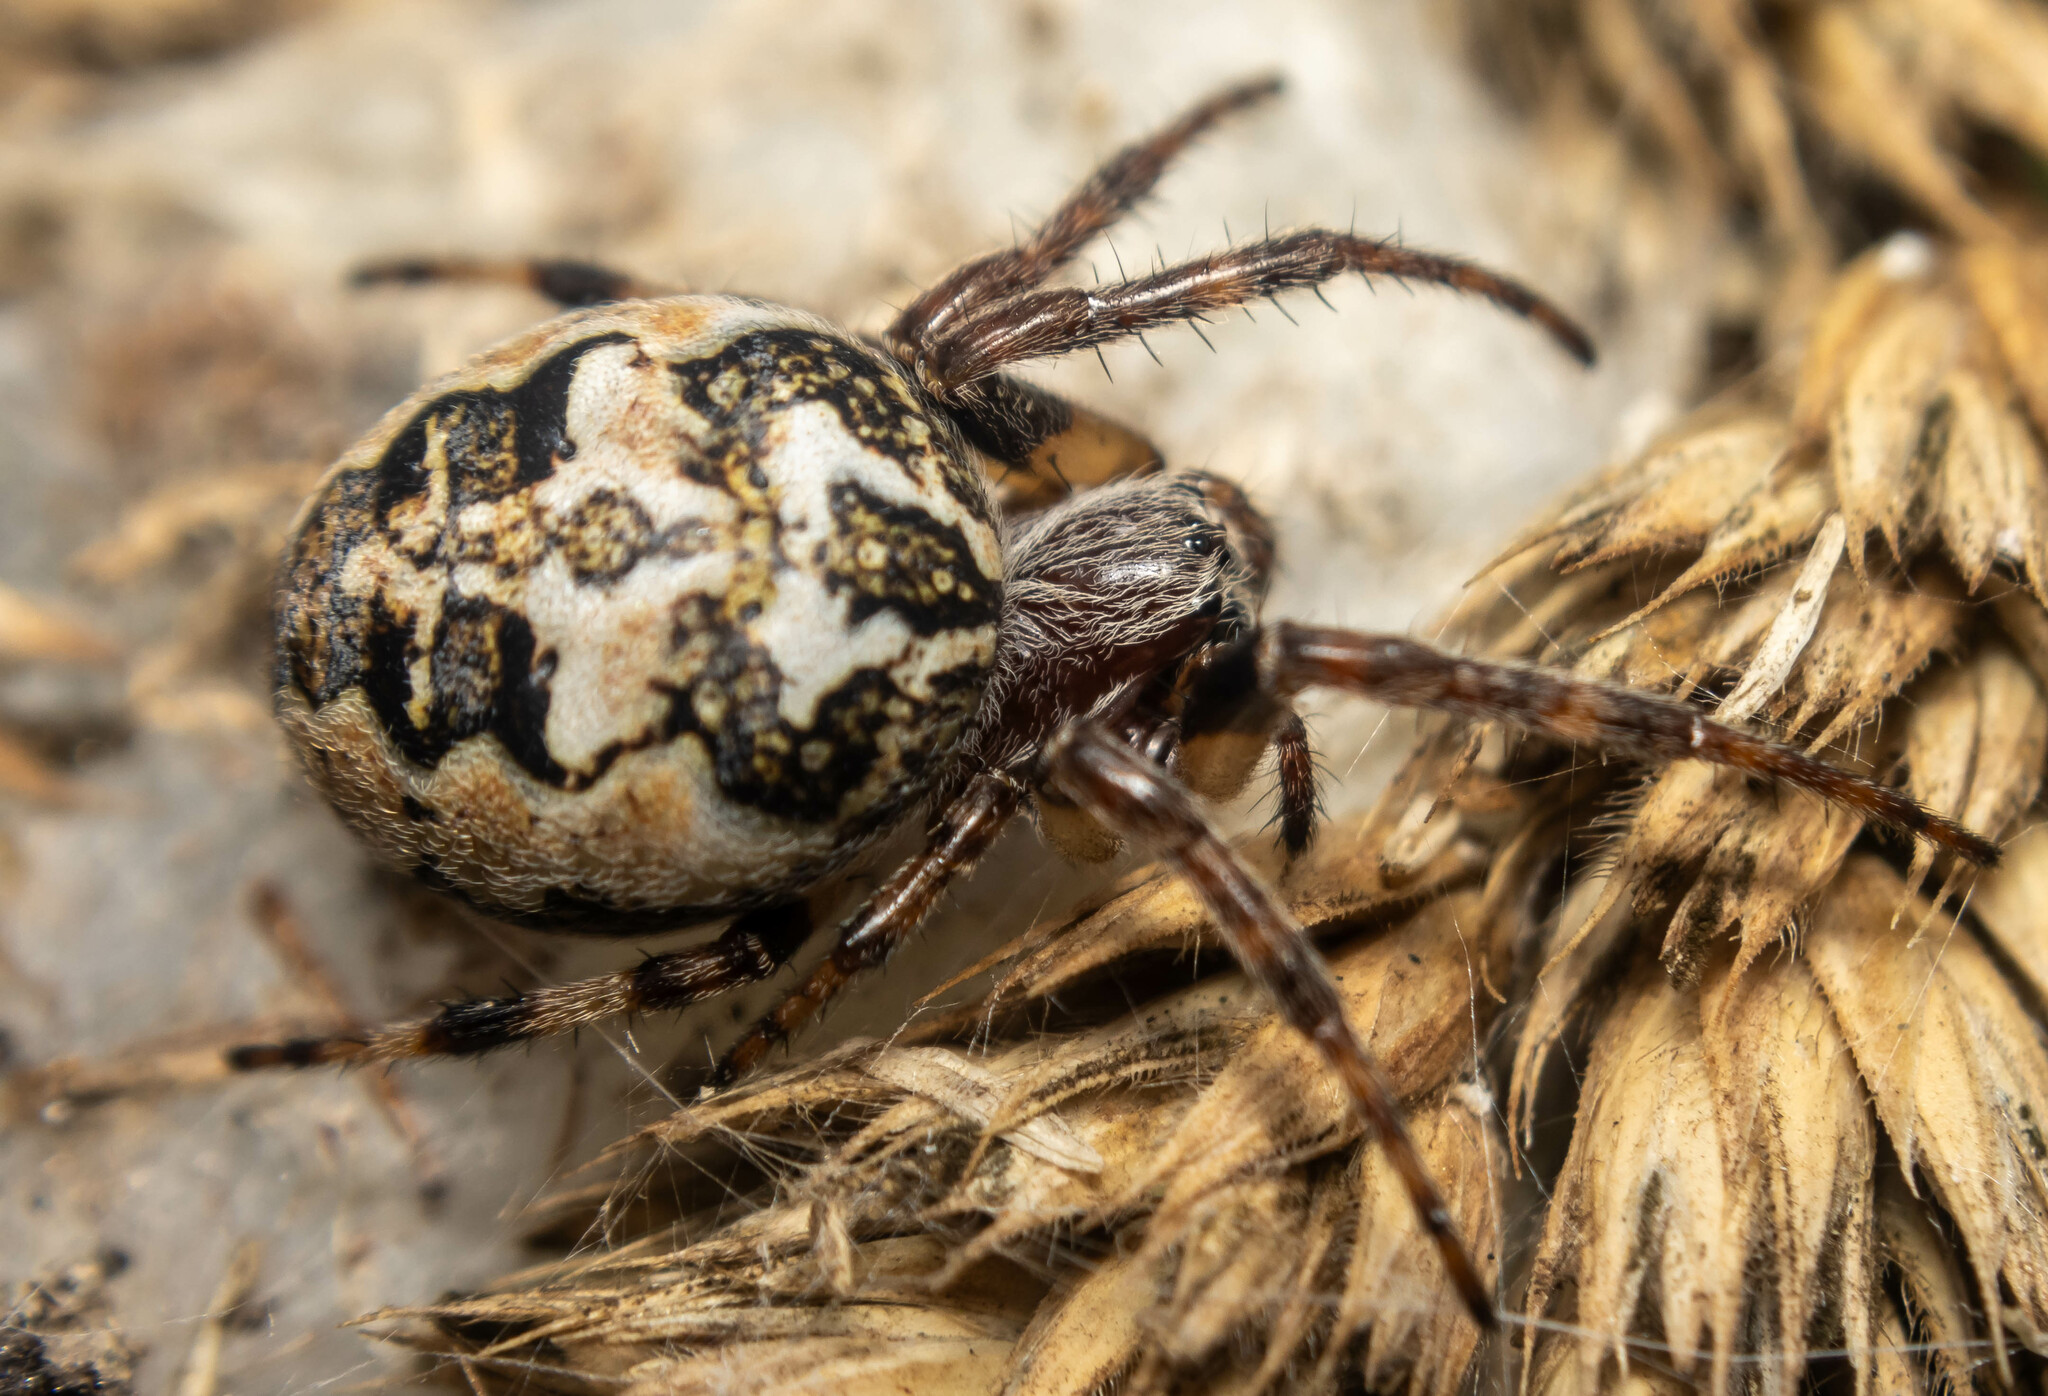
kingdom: Animalia
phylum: Arthropoda
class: Arachnida
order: Araneae
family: Araneidae
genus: Larinioides
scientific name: Larinioides cornutus
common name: Furrow orbweaver
